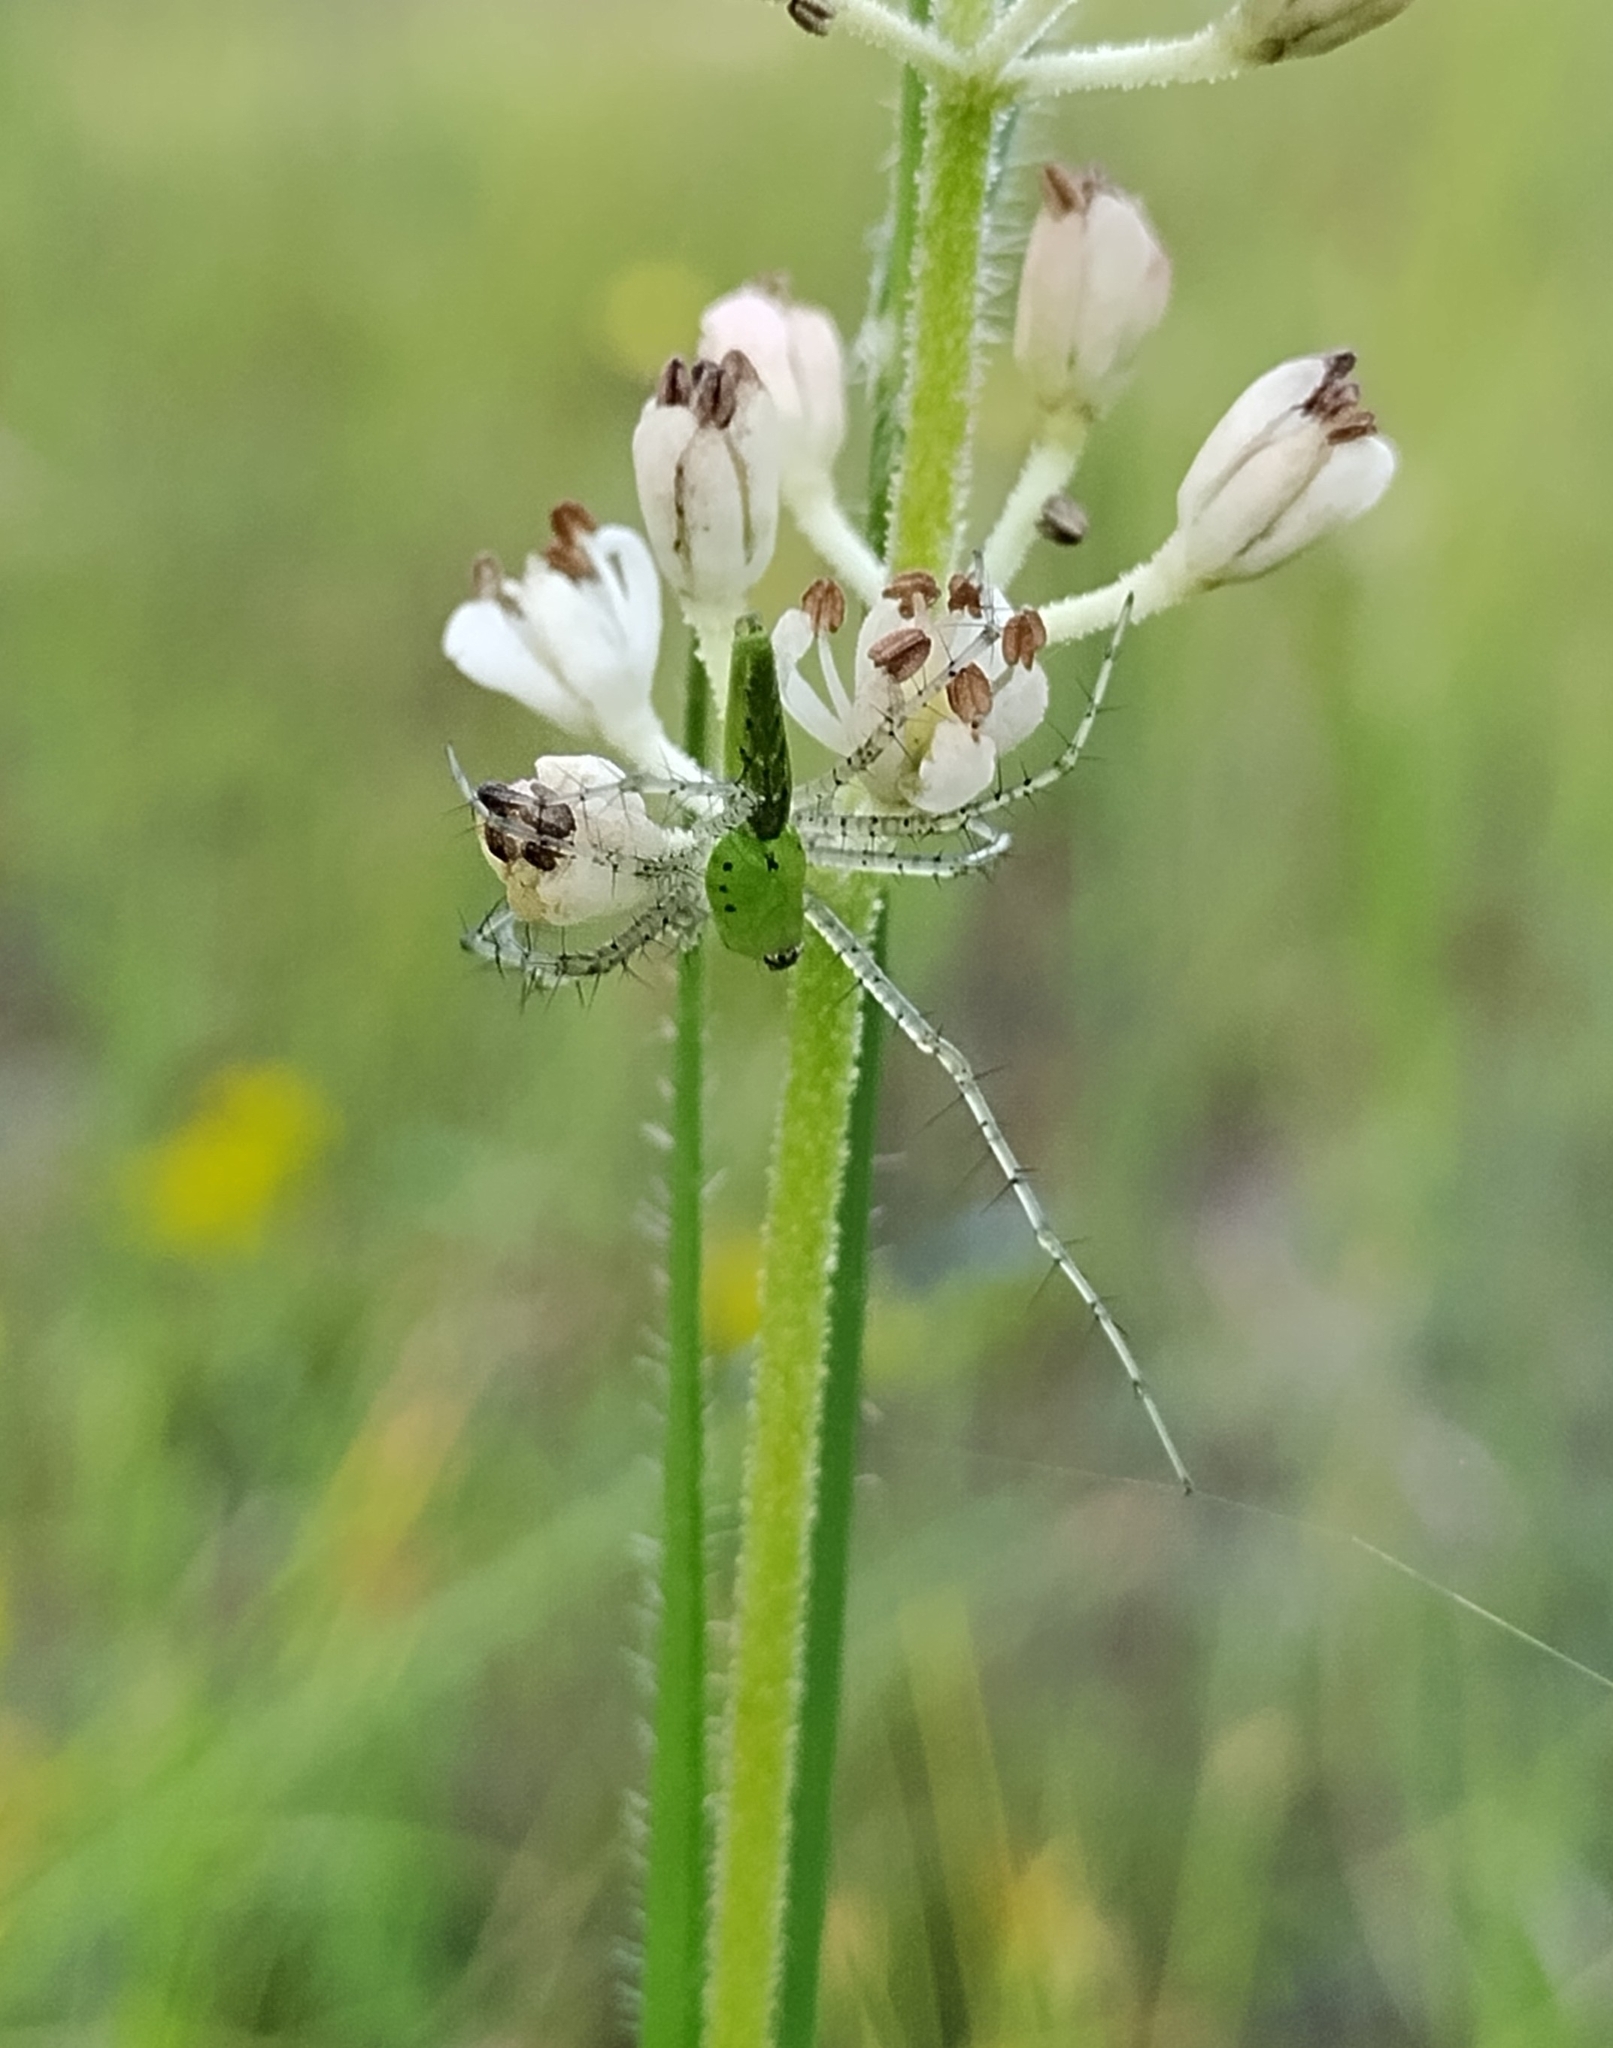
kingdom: Animalia
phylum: Arthropoda
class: Arachnida
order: Araneae
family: Oxyopidae
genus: Peucetia
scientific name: Peucetia viridans
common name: Lynx spiders
